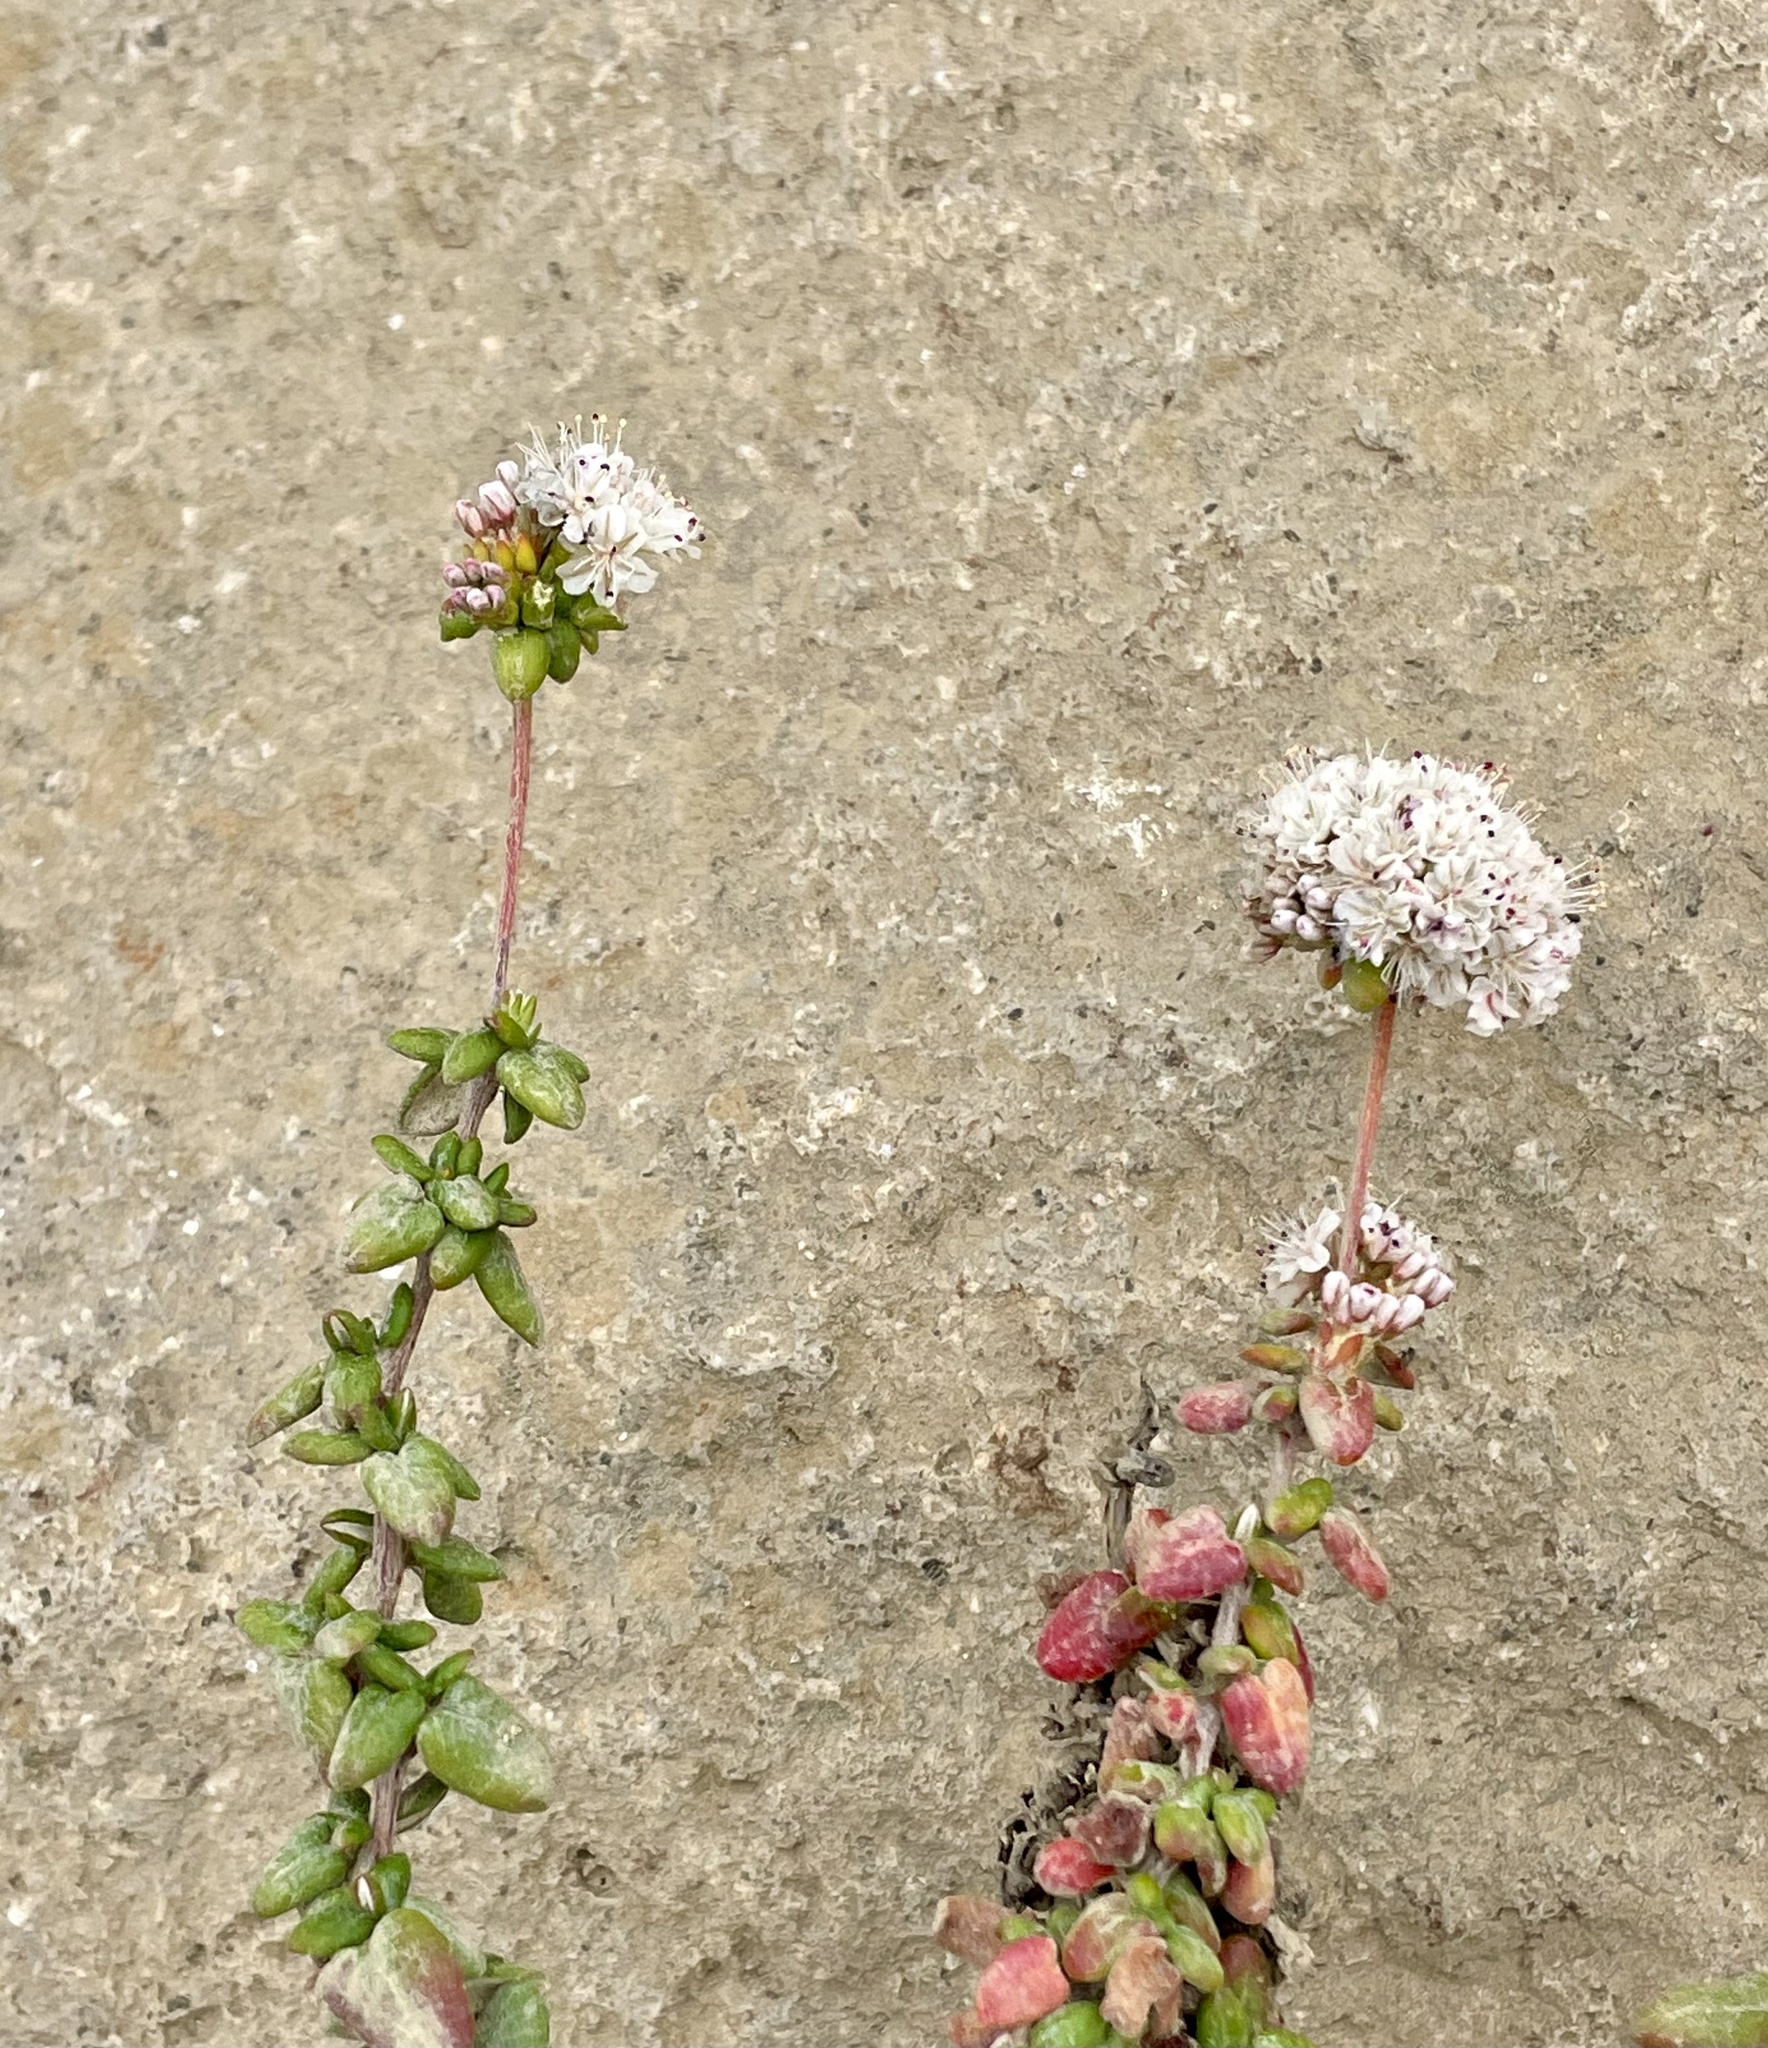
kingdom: Plantae
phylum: Tracheophyta
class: Magnoliopsida
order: Caryophyllales
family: Polygonaceae
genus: Eriogonum
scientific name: Eriogonum parvifolium
